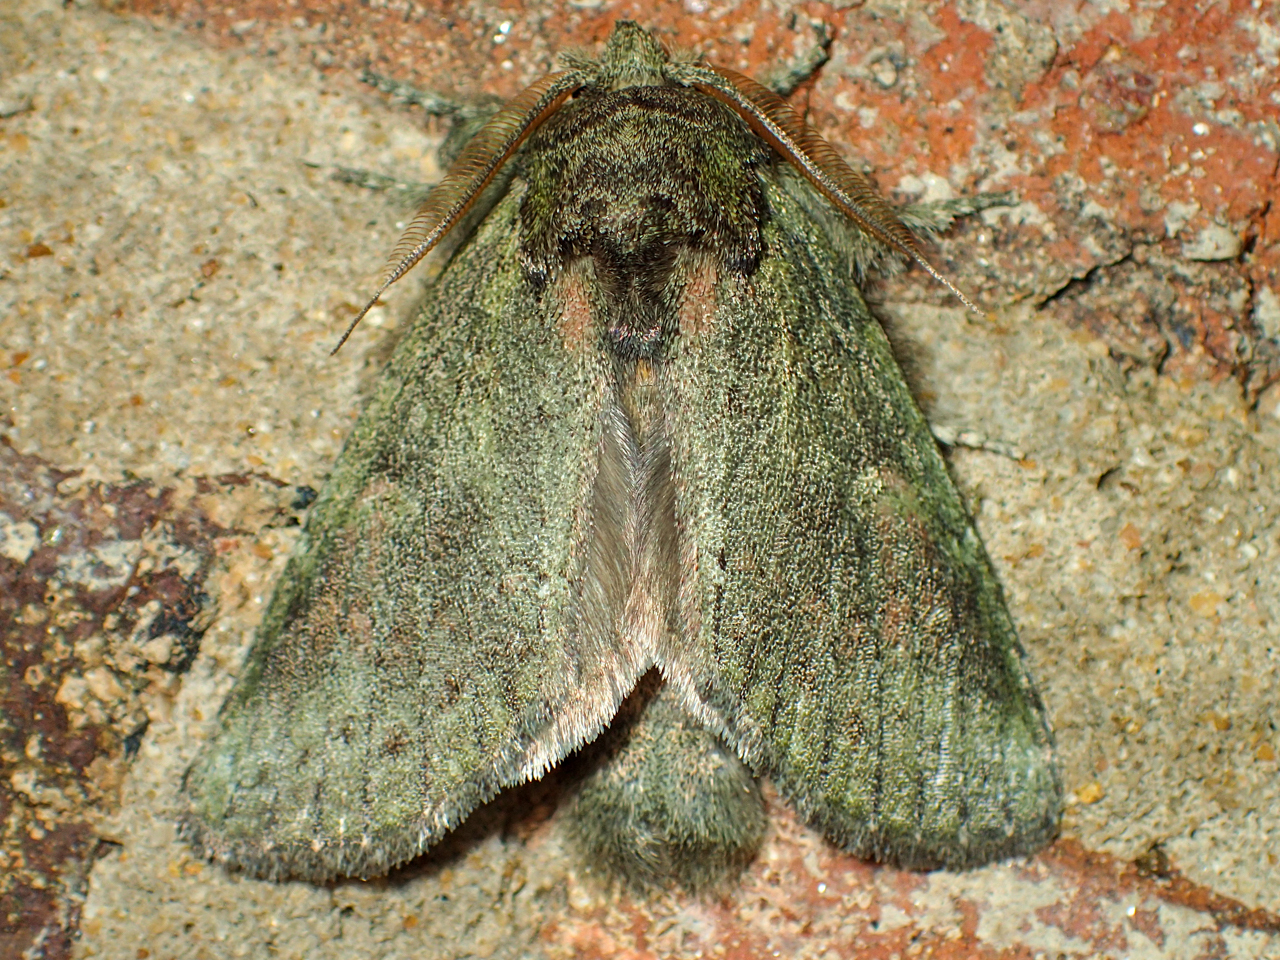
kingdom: Animalia
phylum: Arthropoda
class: Insecta
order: Lepidoptera
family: Notodontidae
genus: Disphragis
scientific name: Disphragis Cecrita guttivitta
